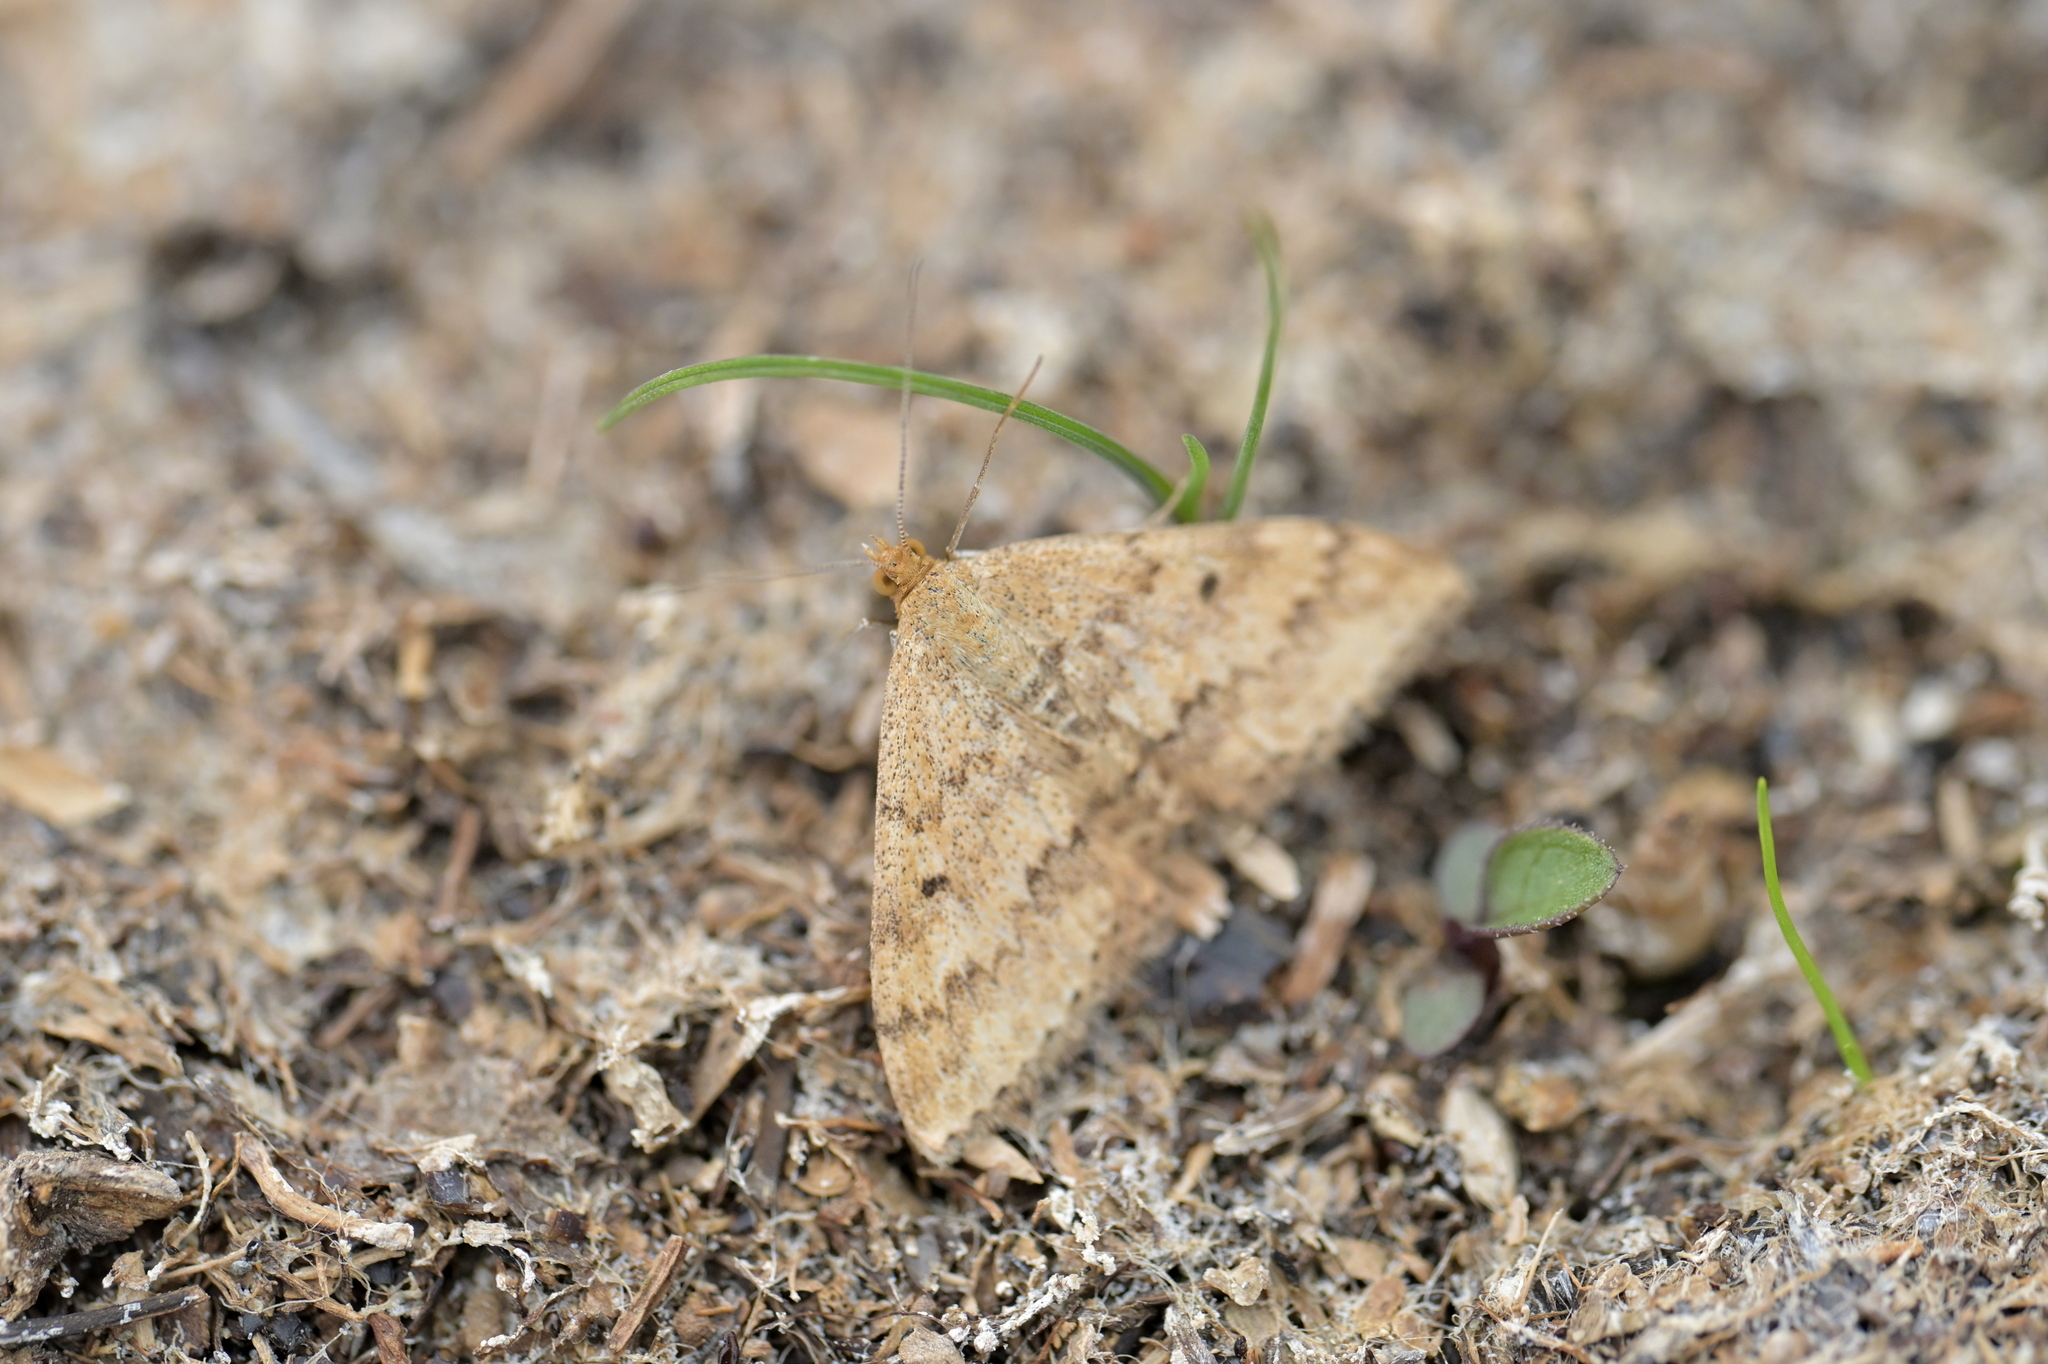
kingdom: Animalia
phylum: Arthropoda
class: Insecta
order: Lepidoptera
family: Geometridae
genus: Scopula
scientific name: Scopula rubraria
